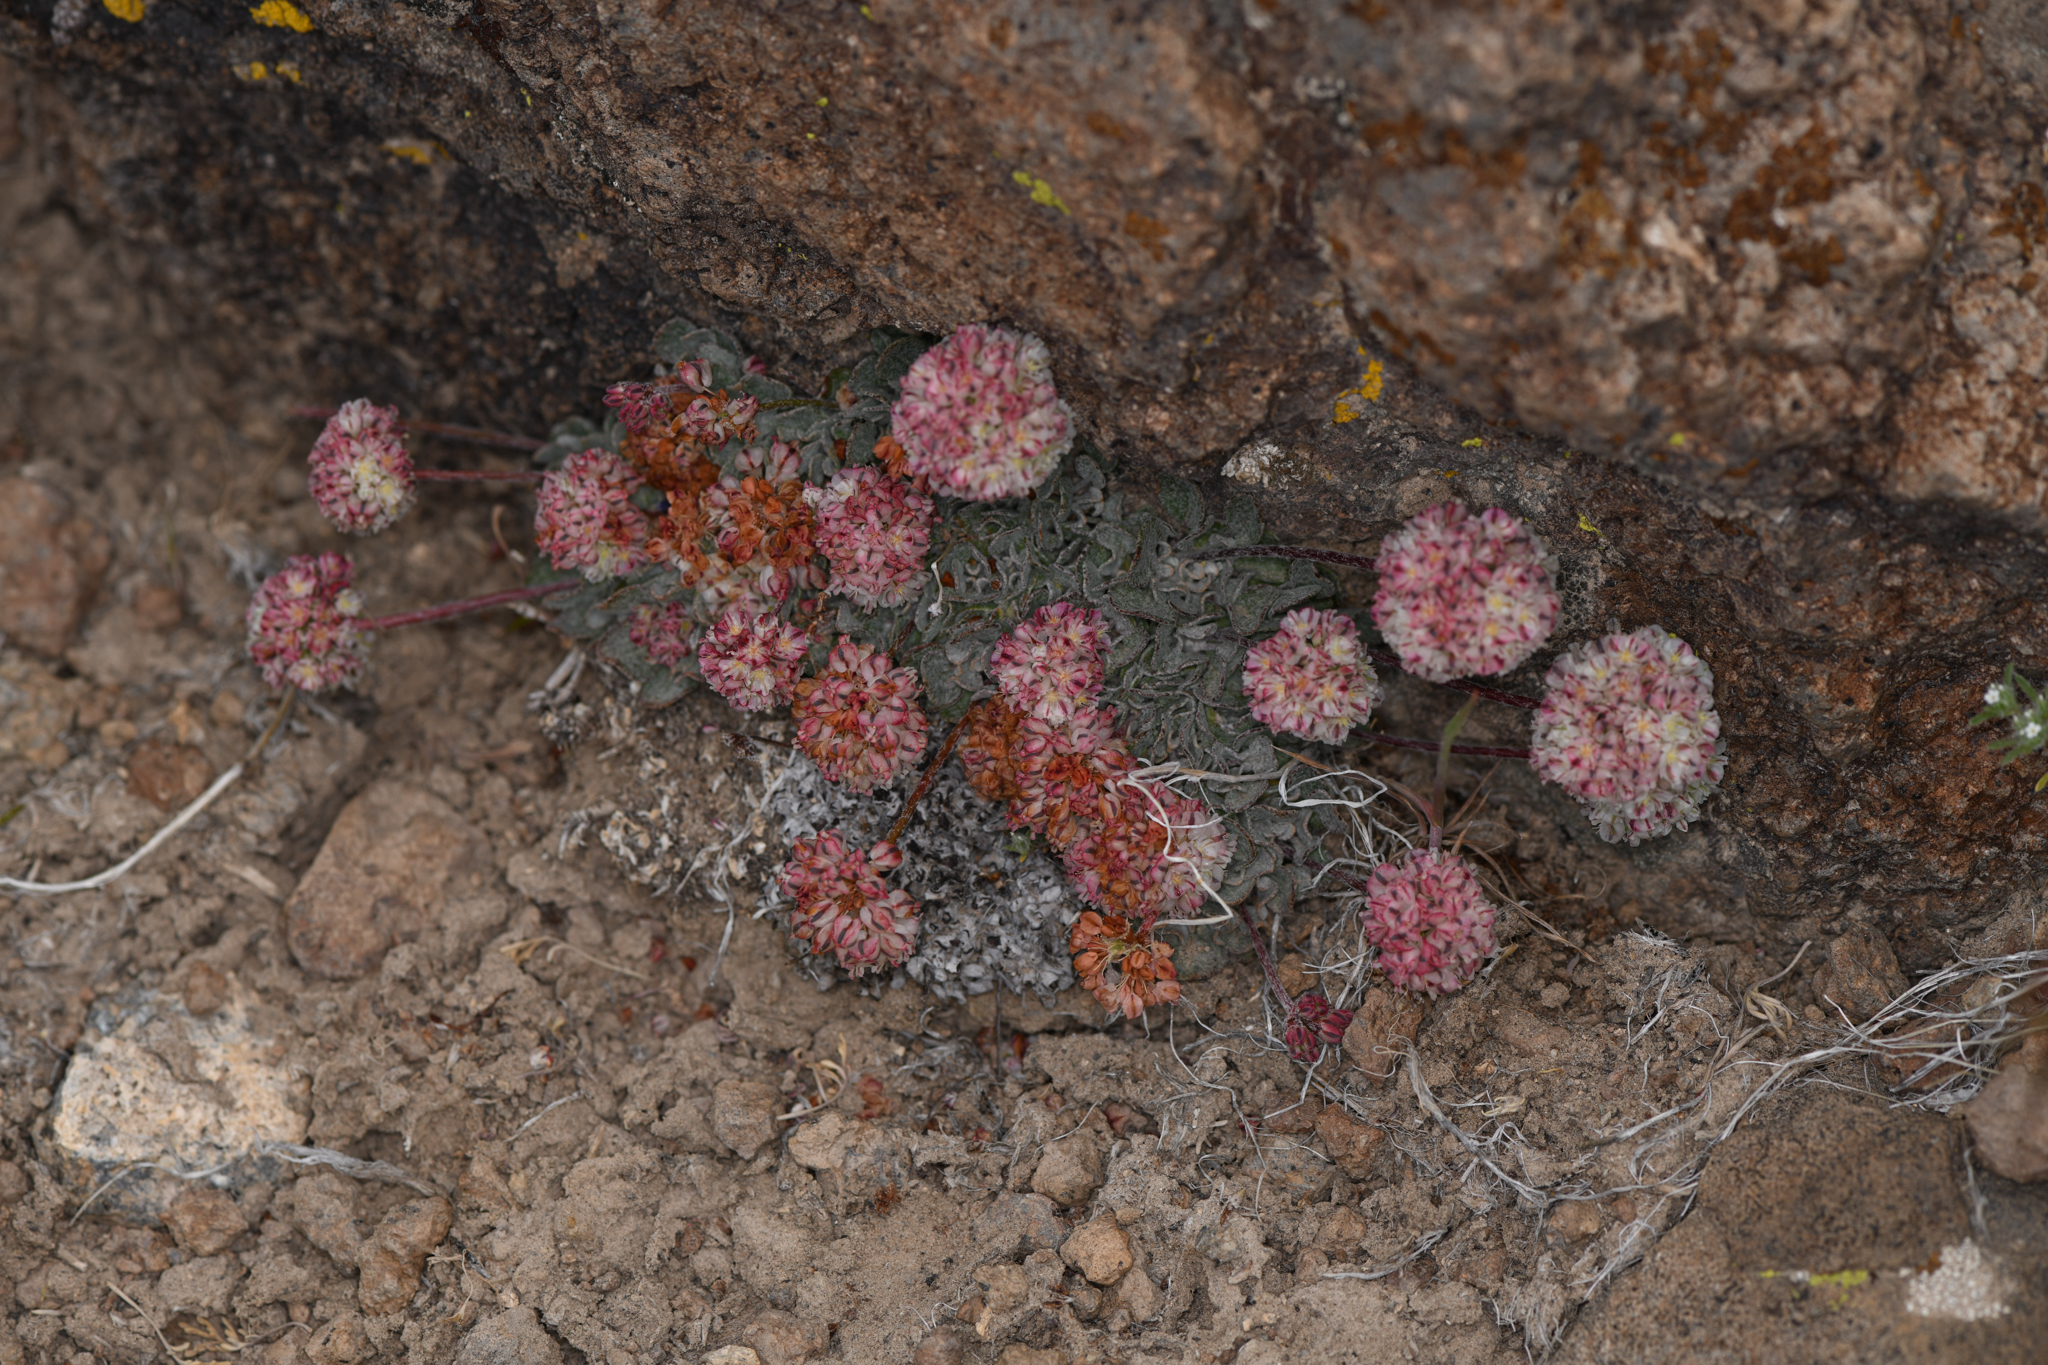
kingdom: Plantae
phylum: Tracheophyta
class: Magnoliopsida
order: Caryophyllales
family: Polygonaceae
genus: Eriogonum
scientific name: Eriogonum ovalifolium
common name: Cushion buckwheat
